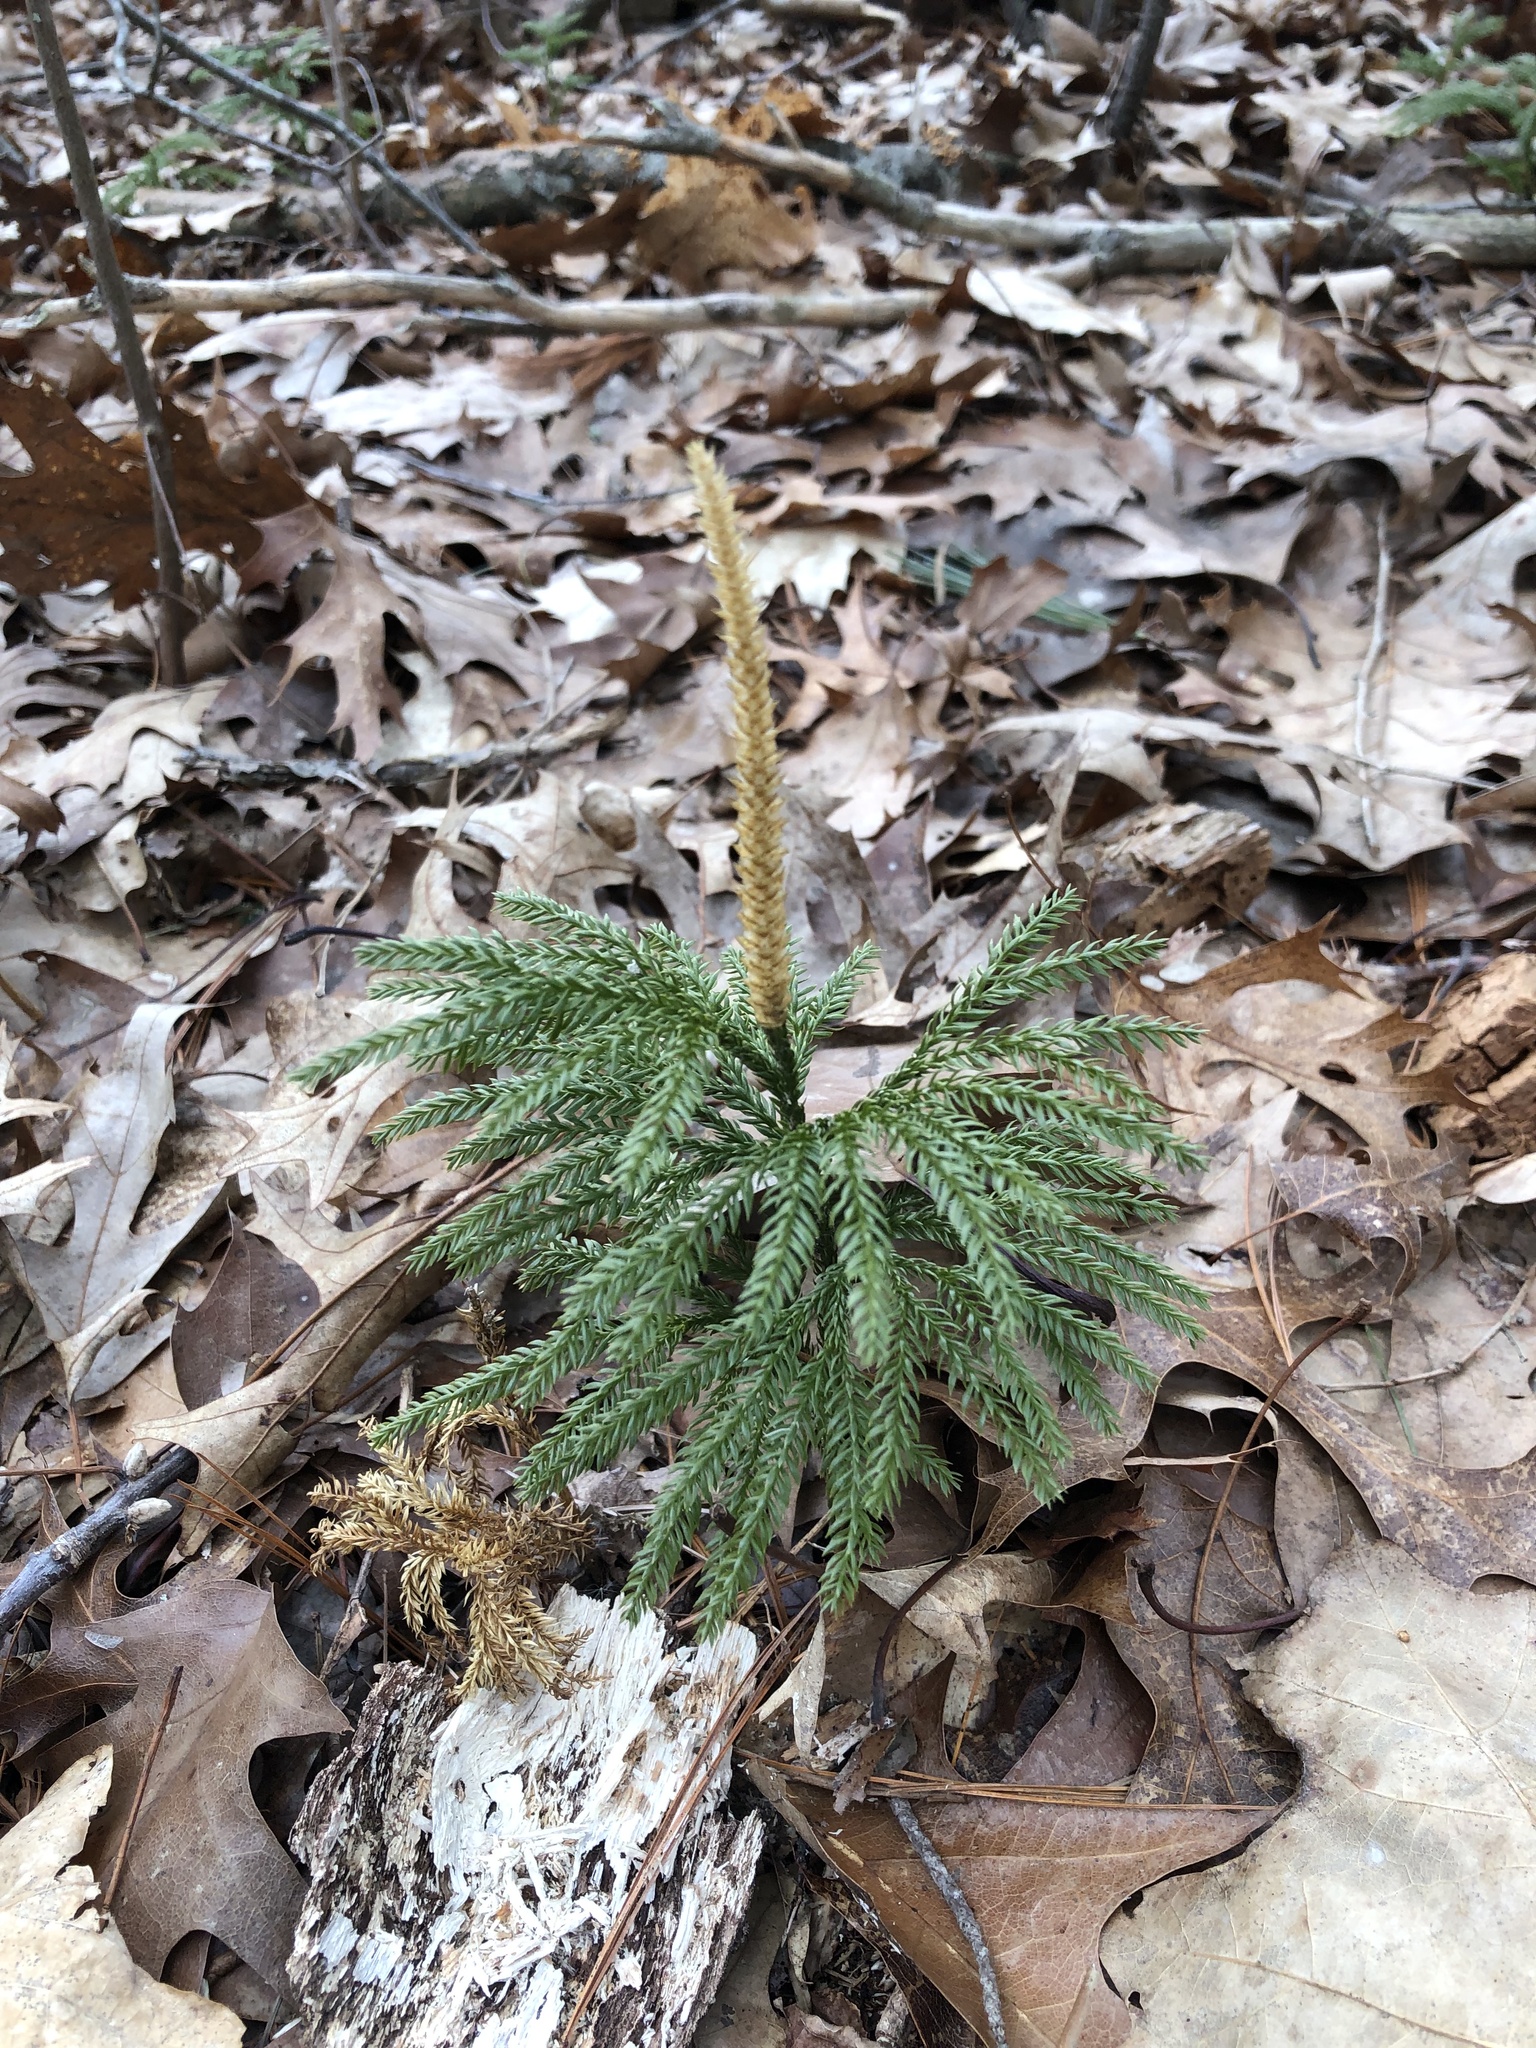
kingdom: Plantae
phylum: Tracheophyta
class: Lycopodiopsida
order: Lycopodiales
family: Lycopodiaceae
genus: Dendrolycopodium
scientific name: Dendrolycopodium obscurum
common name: Common ground-pine
